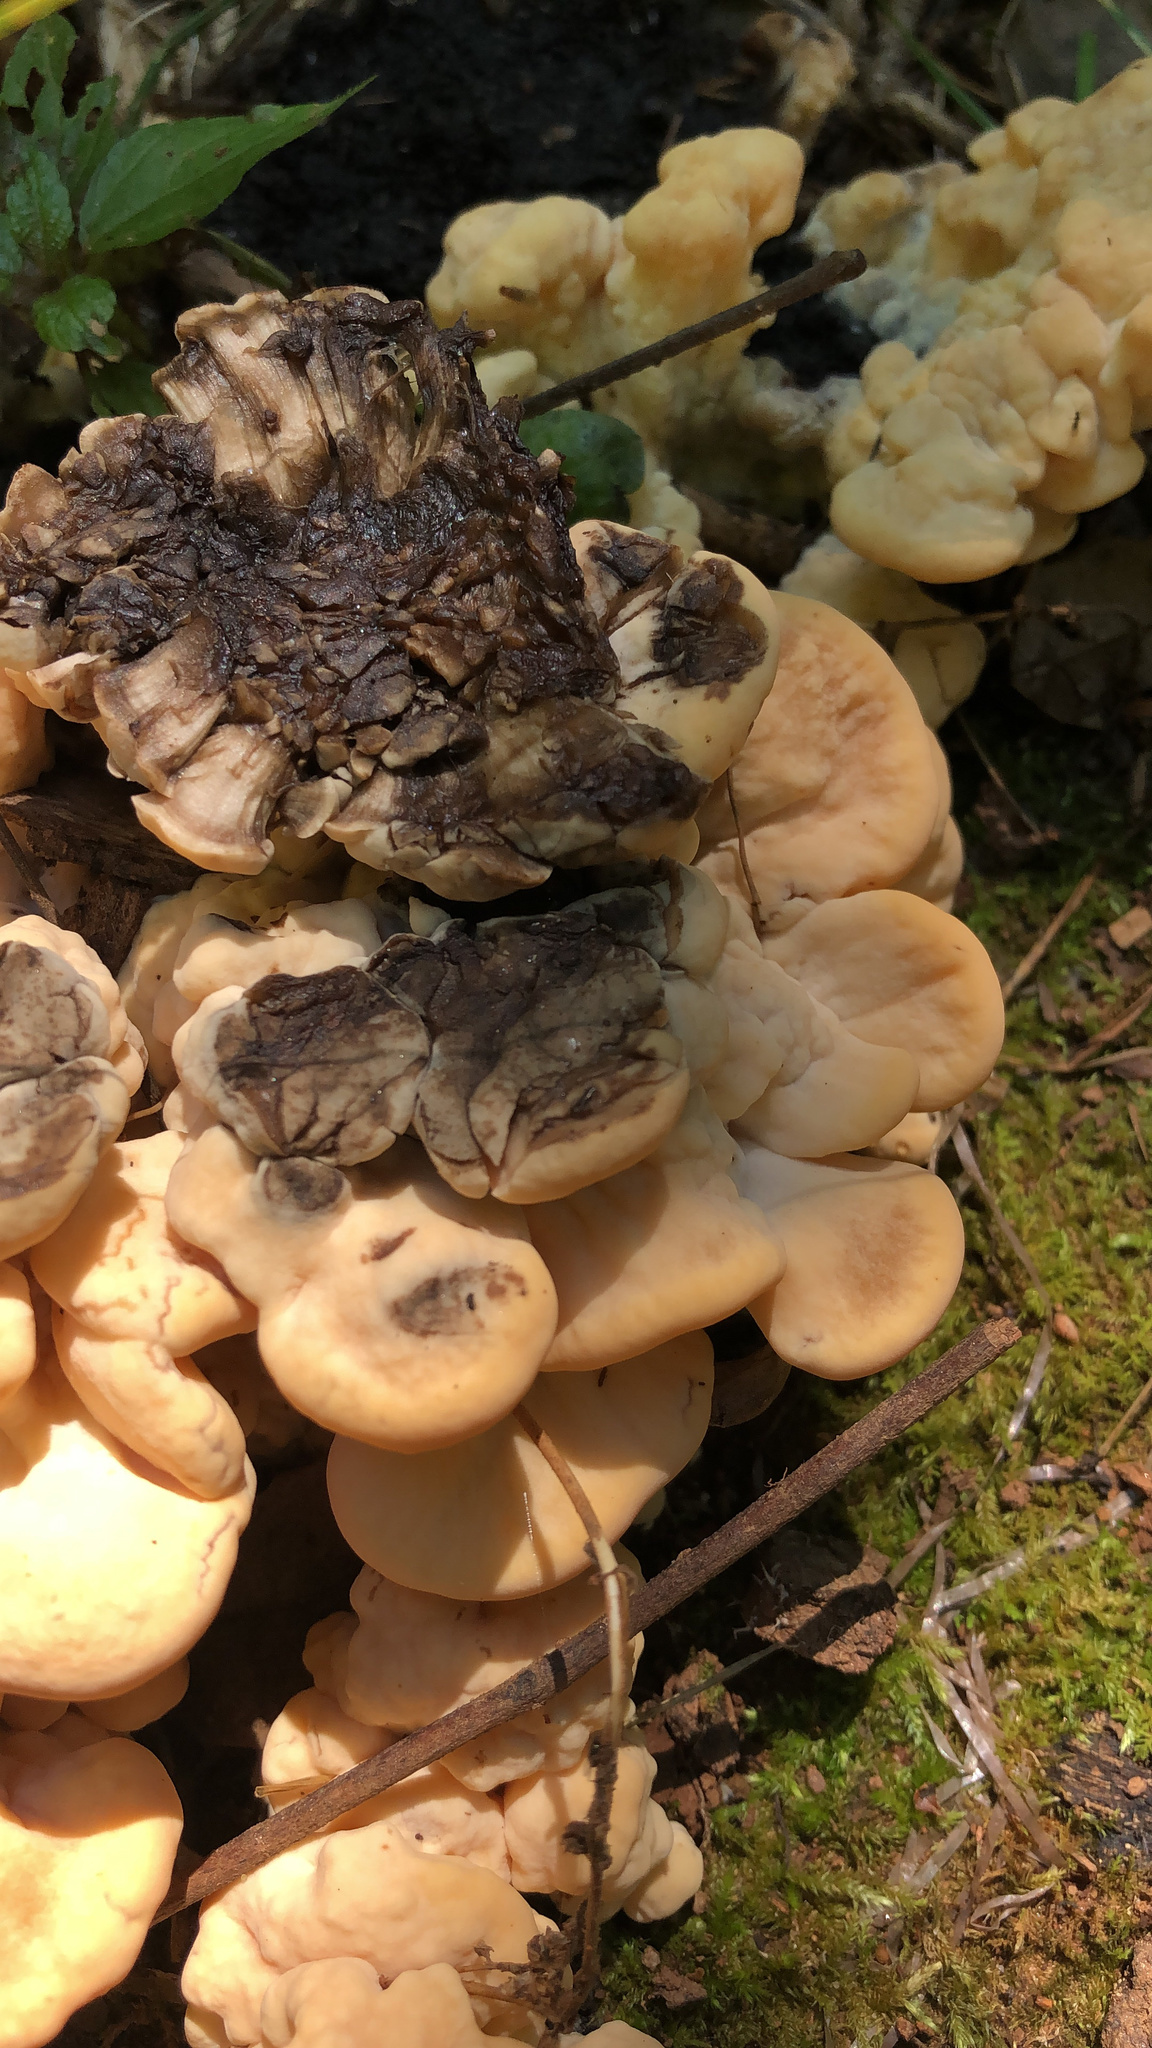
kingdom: Fungi
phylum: Basidiomycota
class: Agaricomycetes
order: Polyporales
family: Meripilaceae
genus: Meripilus
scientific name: Meripilus sumstinei
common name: Black-staining polypore
